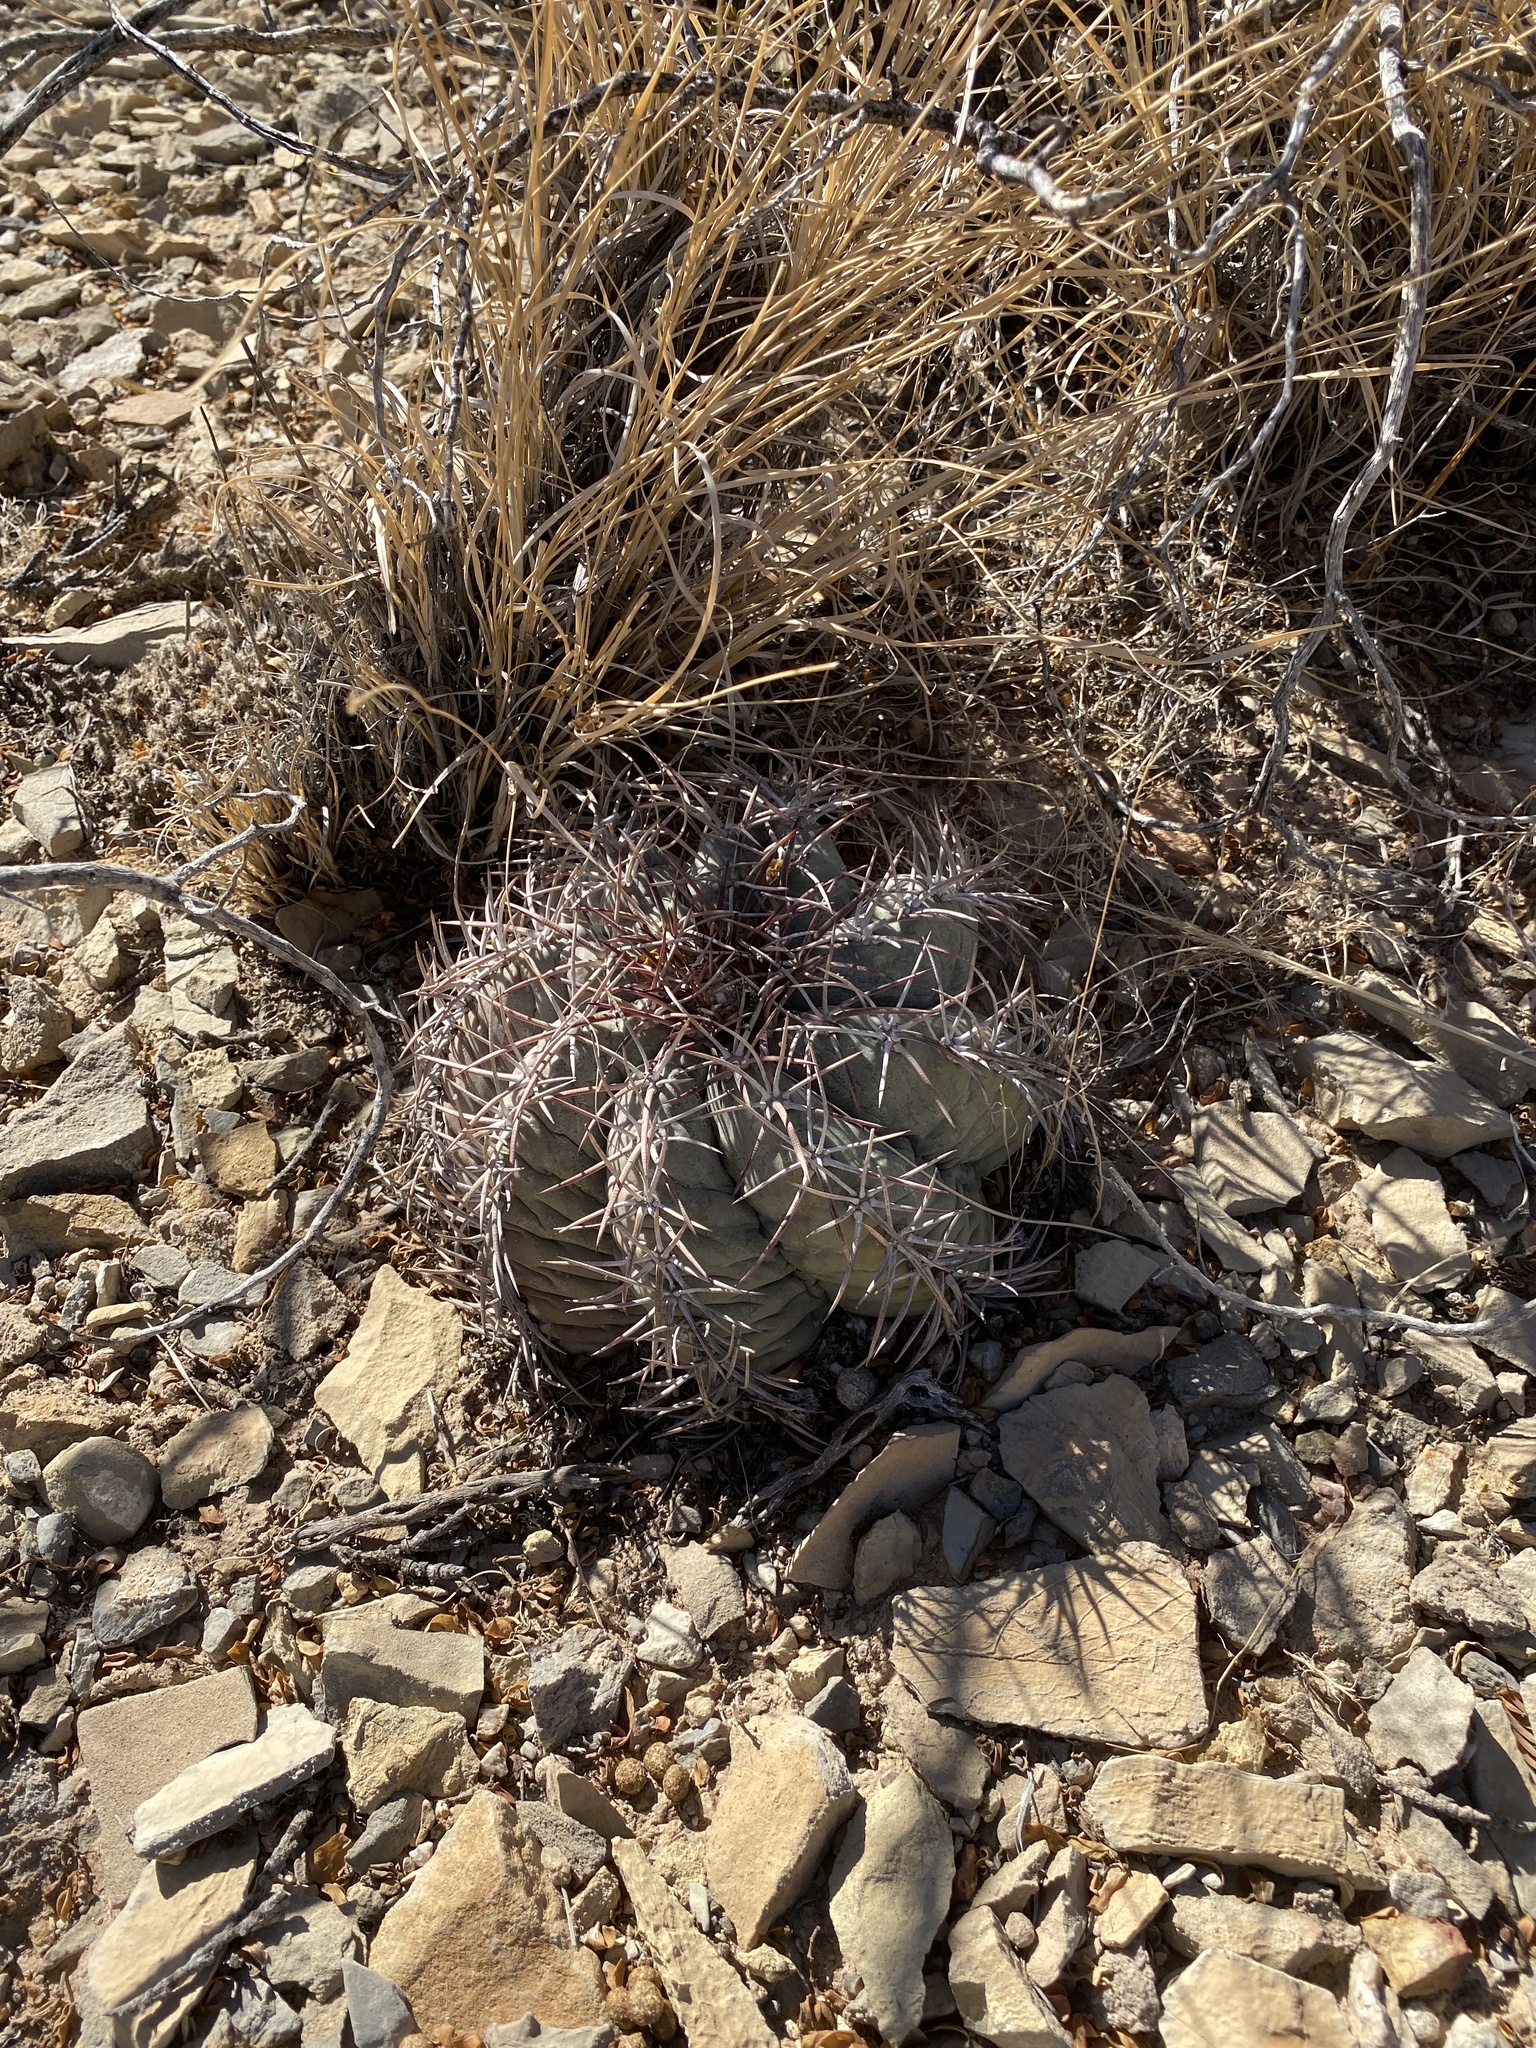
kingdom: Plantae
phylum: Tracheophyta
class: Magnoliopsida
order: Caryophyllales
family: Cactaceae
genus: Echinocactus
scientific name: Echinocactus horizonthalonius
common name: Devilshead
